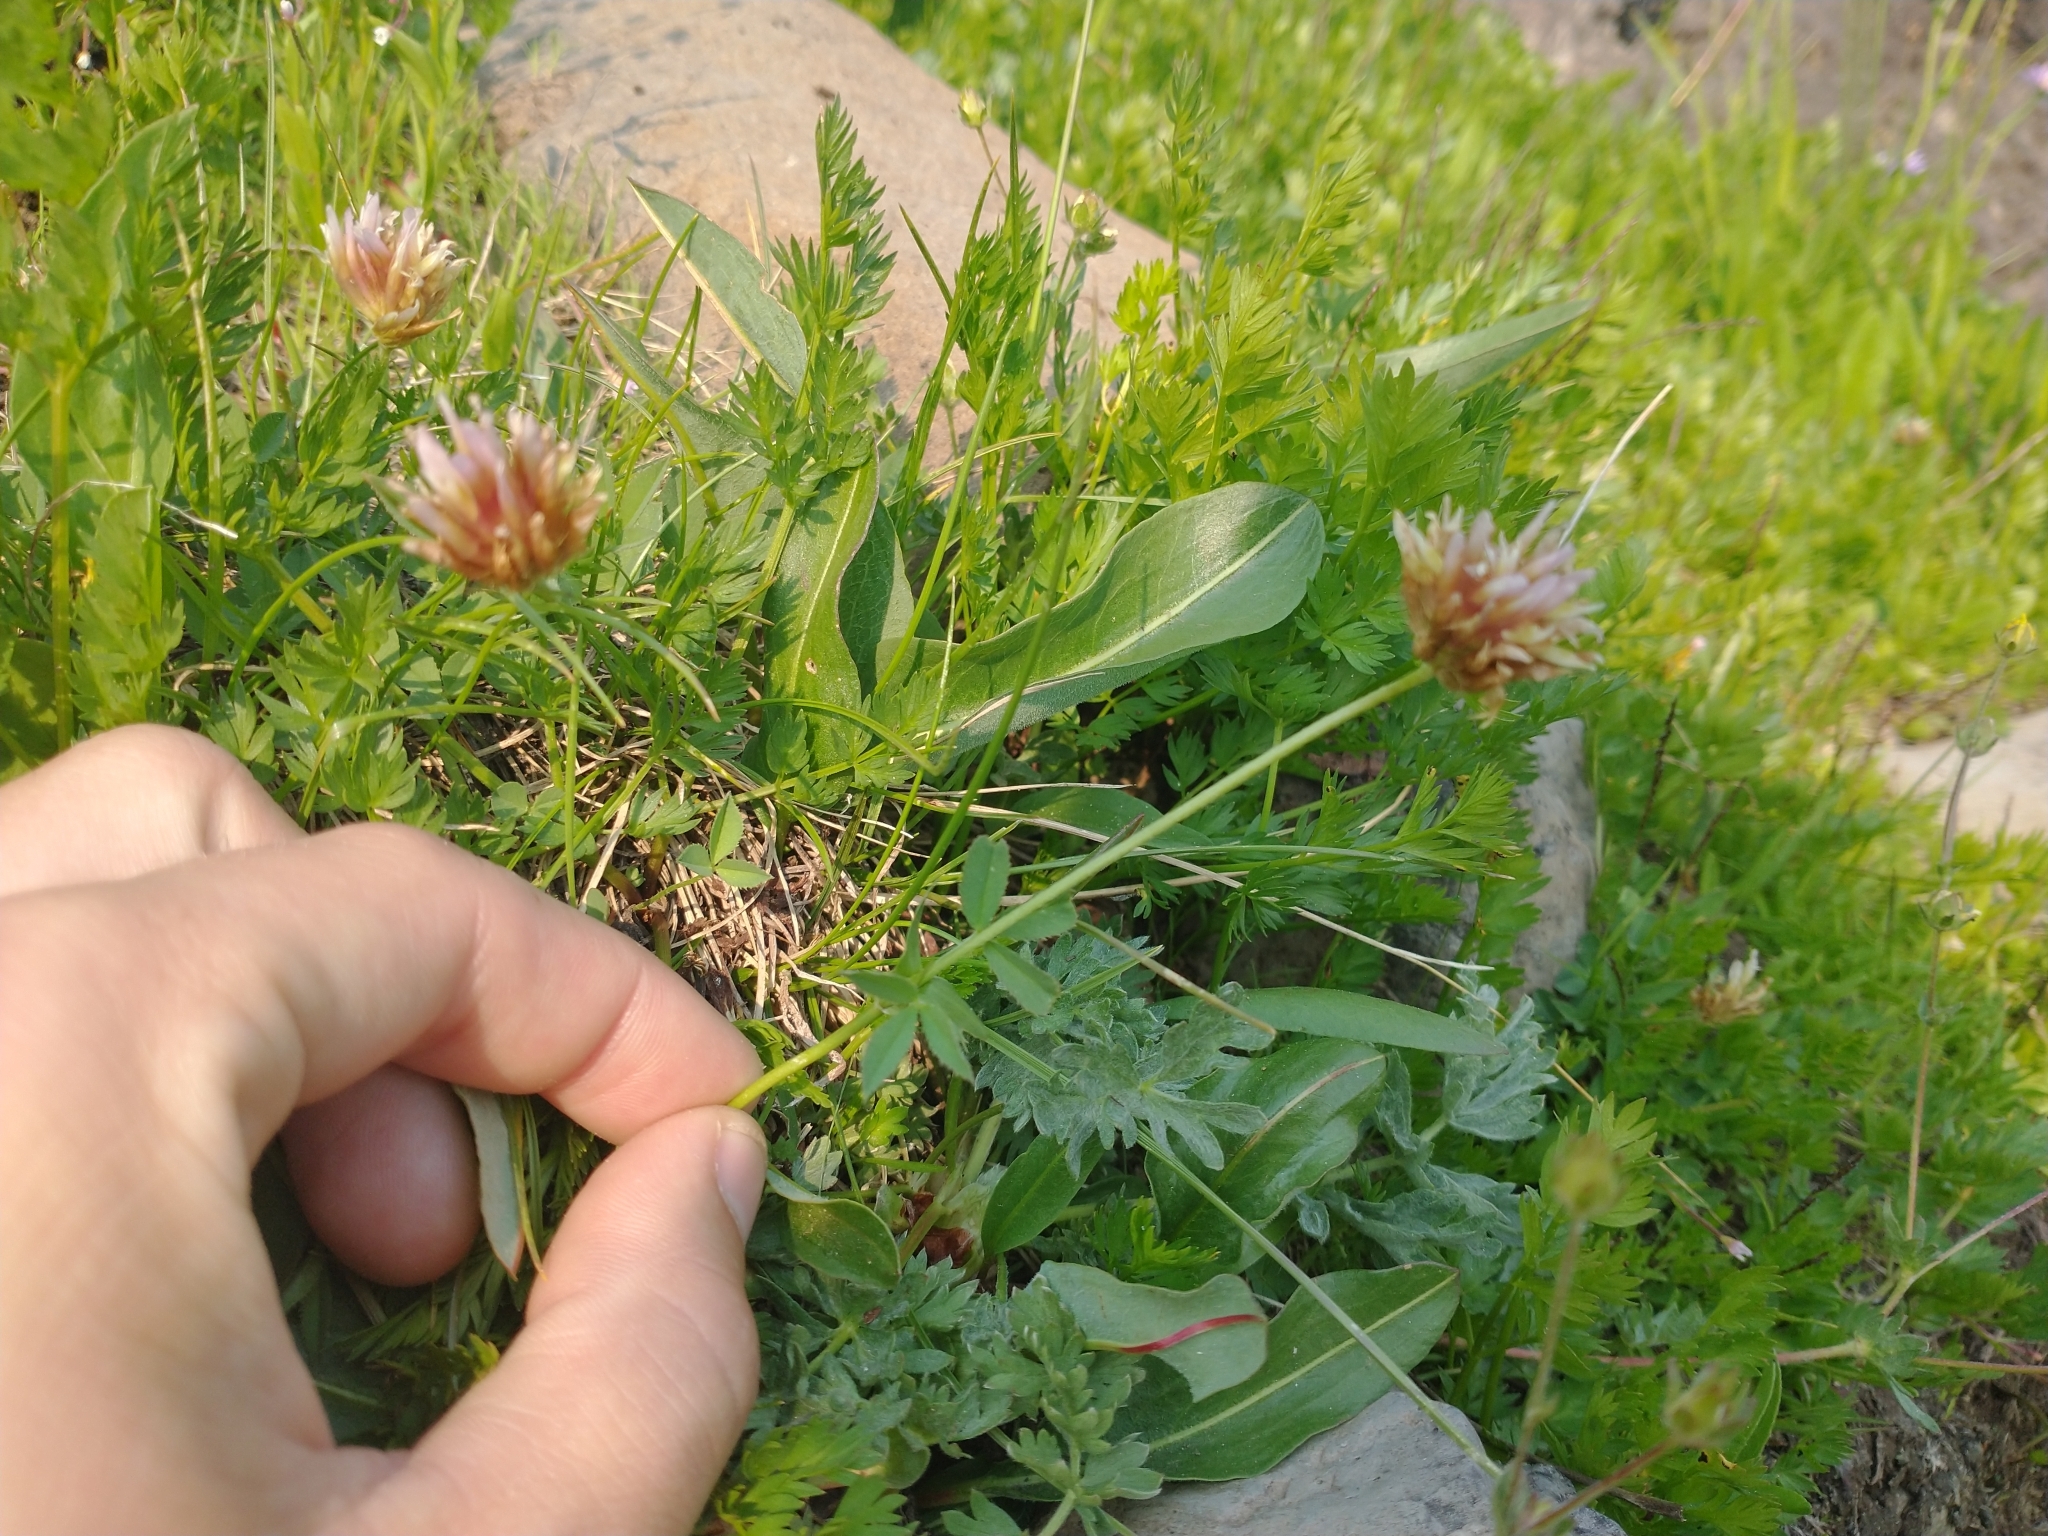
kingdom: Plantae
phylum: Tracheophyta
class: Magnoliopsida
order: Fabales
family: Fabaceae
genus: Trifolium
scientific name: Trifolium longipes
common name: Long-stalk clover
